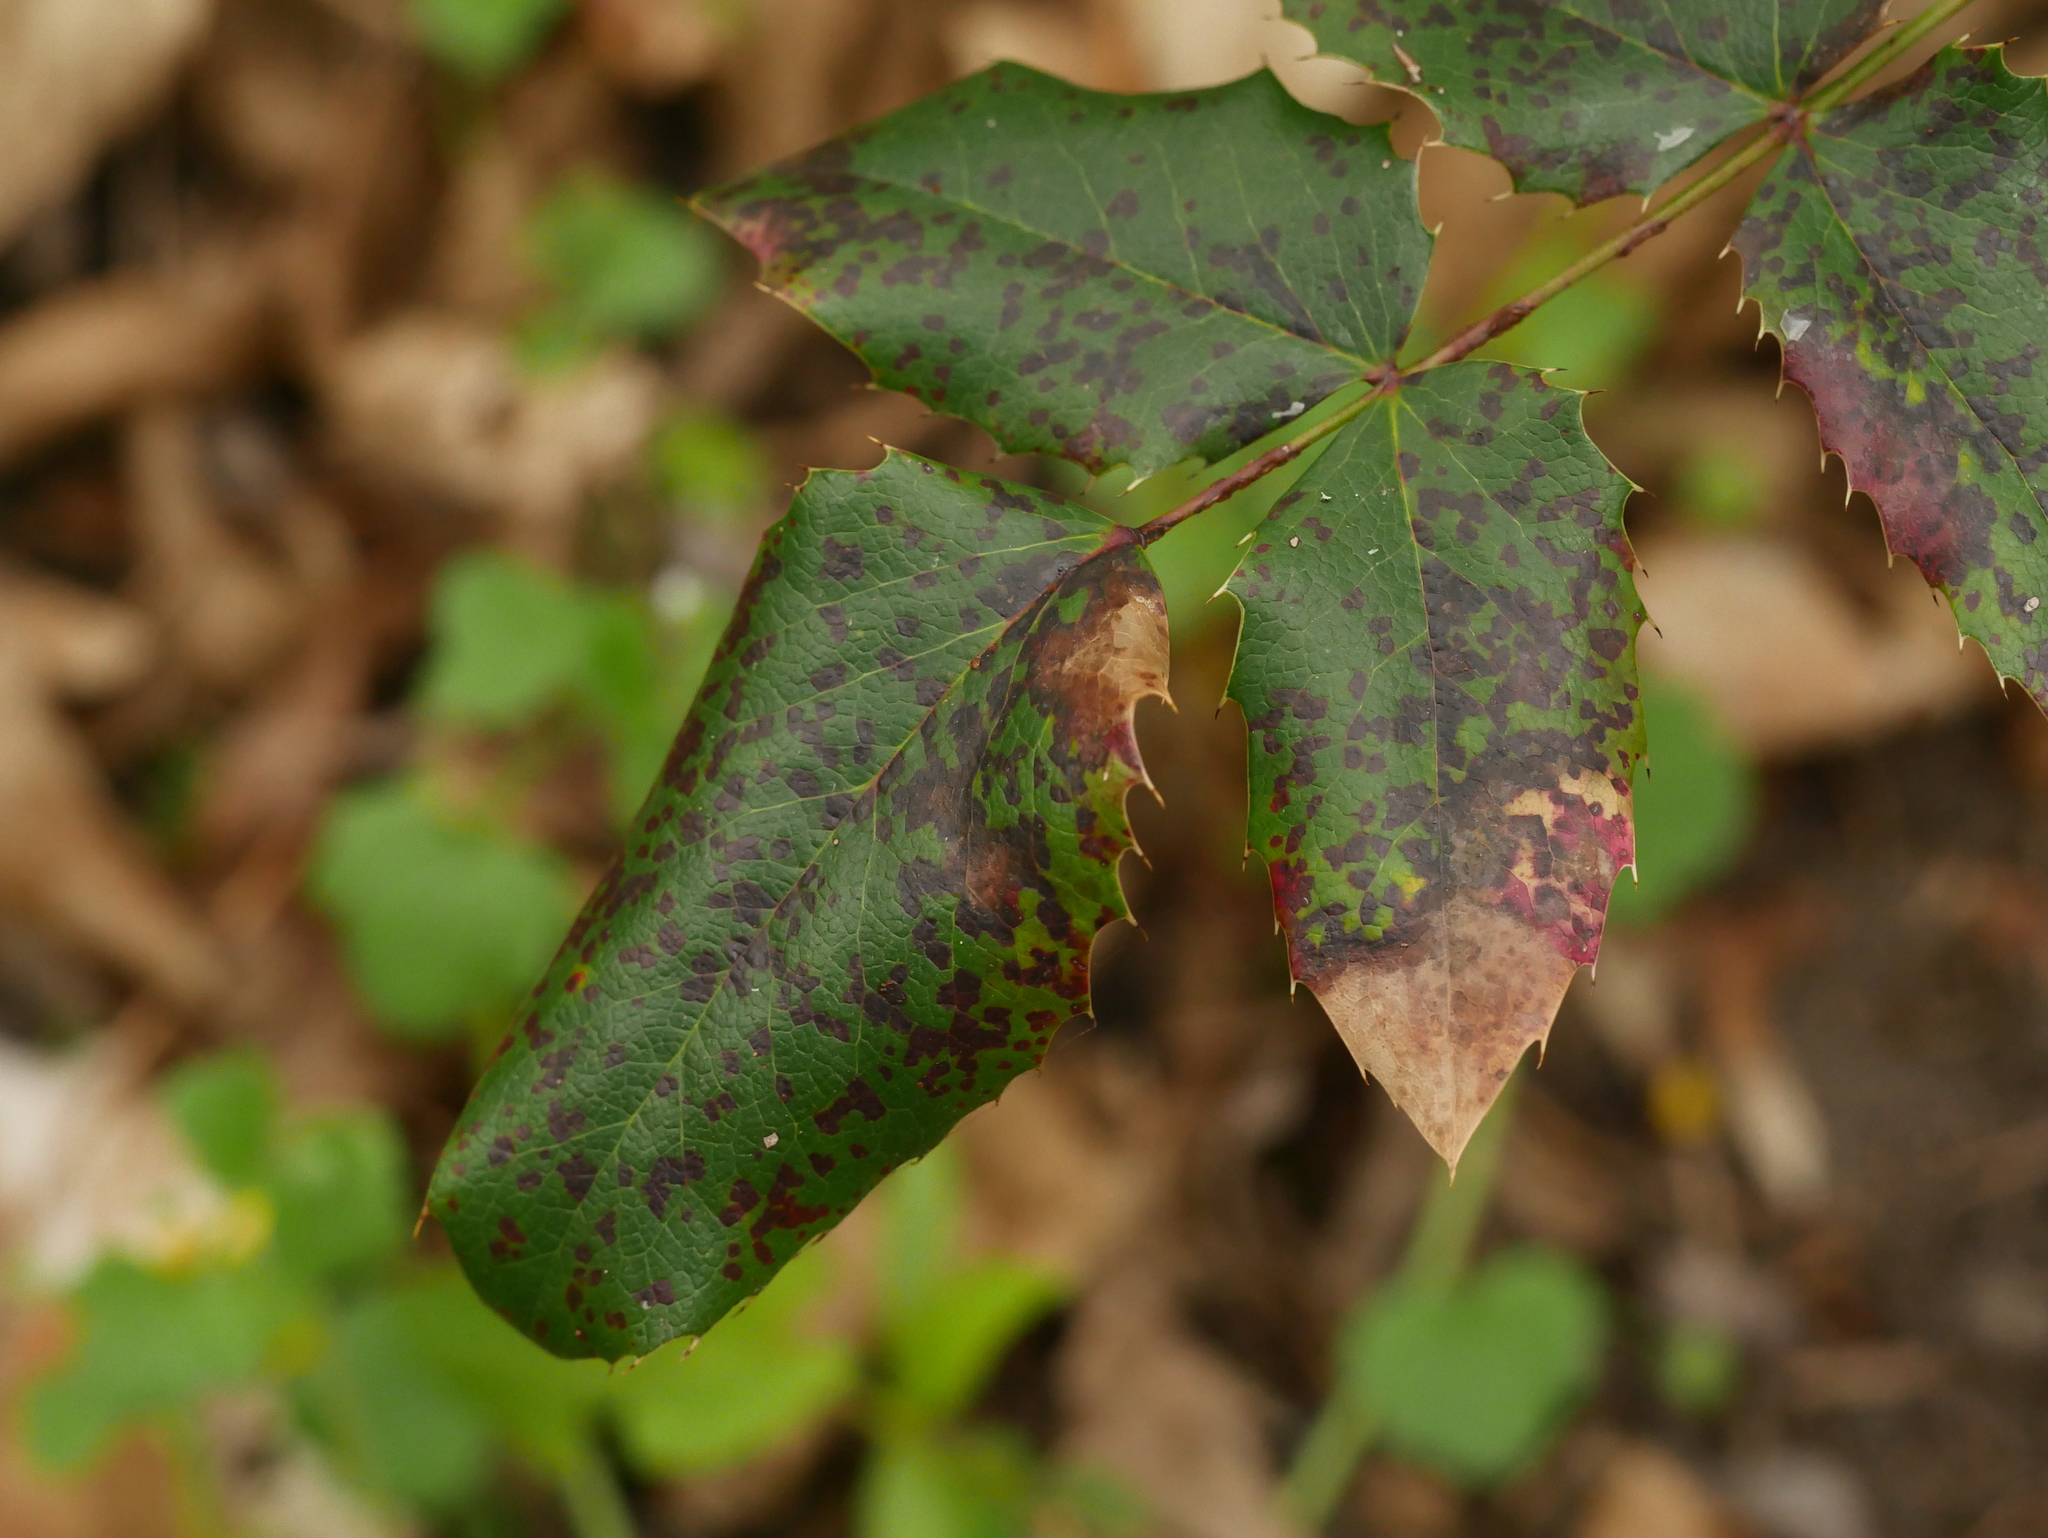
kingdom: Plantae
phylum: Tracheophyta
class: Magnoliopsida
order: Ranunculales
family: Berberidaceae
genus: Mahonia
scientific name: Mahonia aquifolium
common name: Oregon-grape
